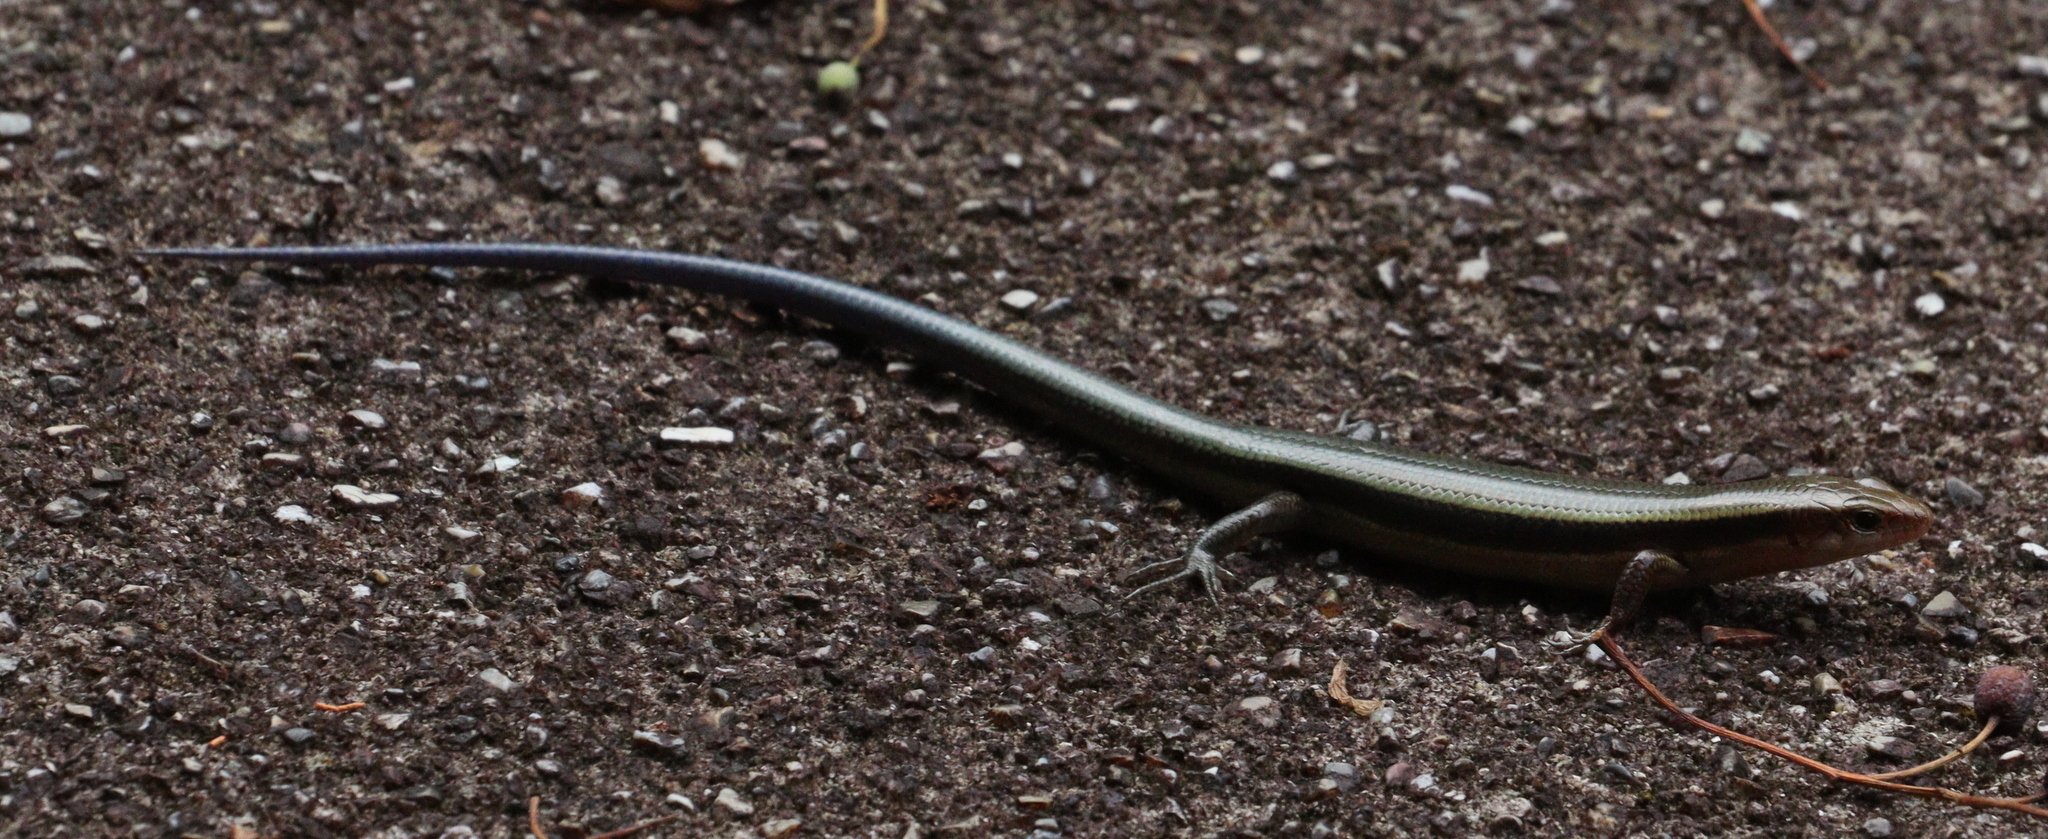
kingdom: Animalia
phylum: Chordata
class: Squamata
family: Scincidae
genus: Plestiodon
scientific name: Plestiodon finitimus
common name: Far eastern skink
